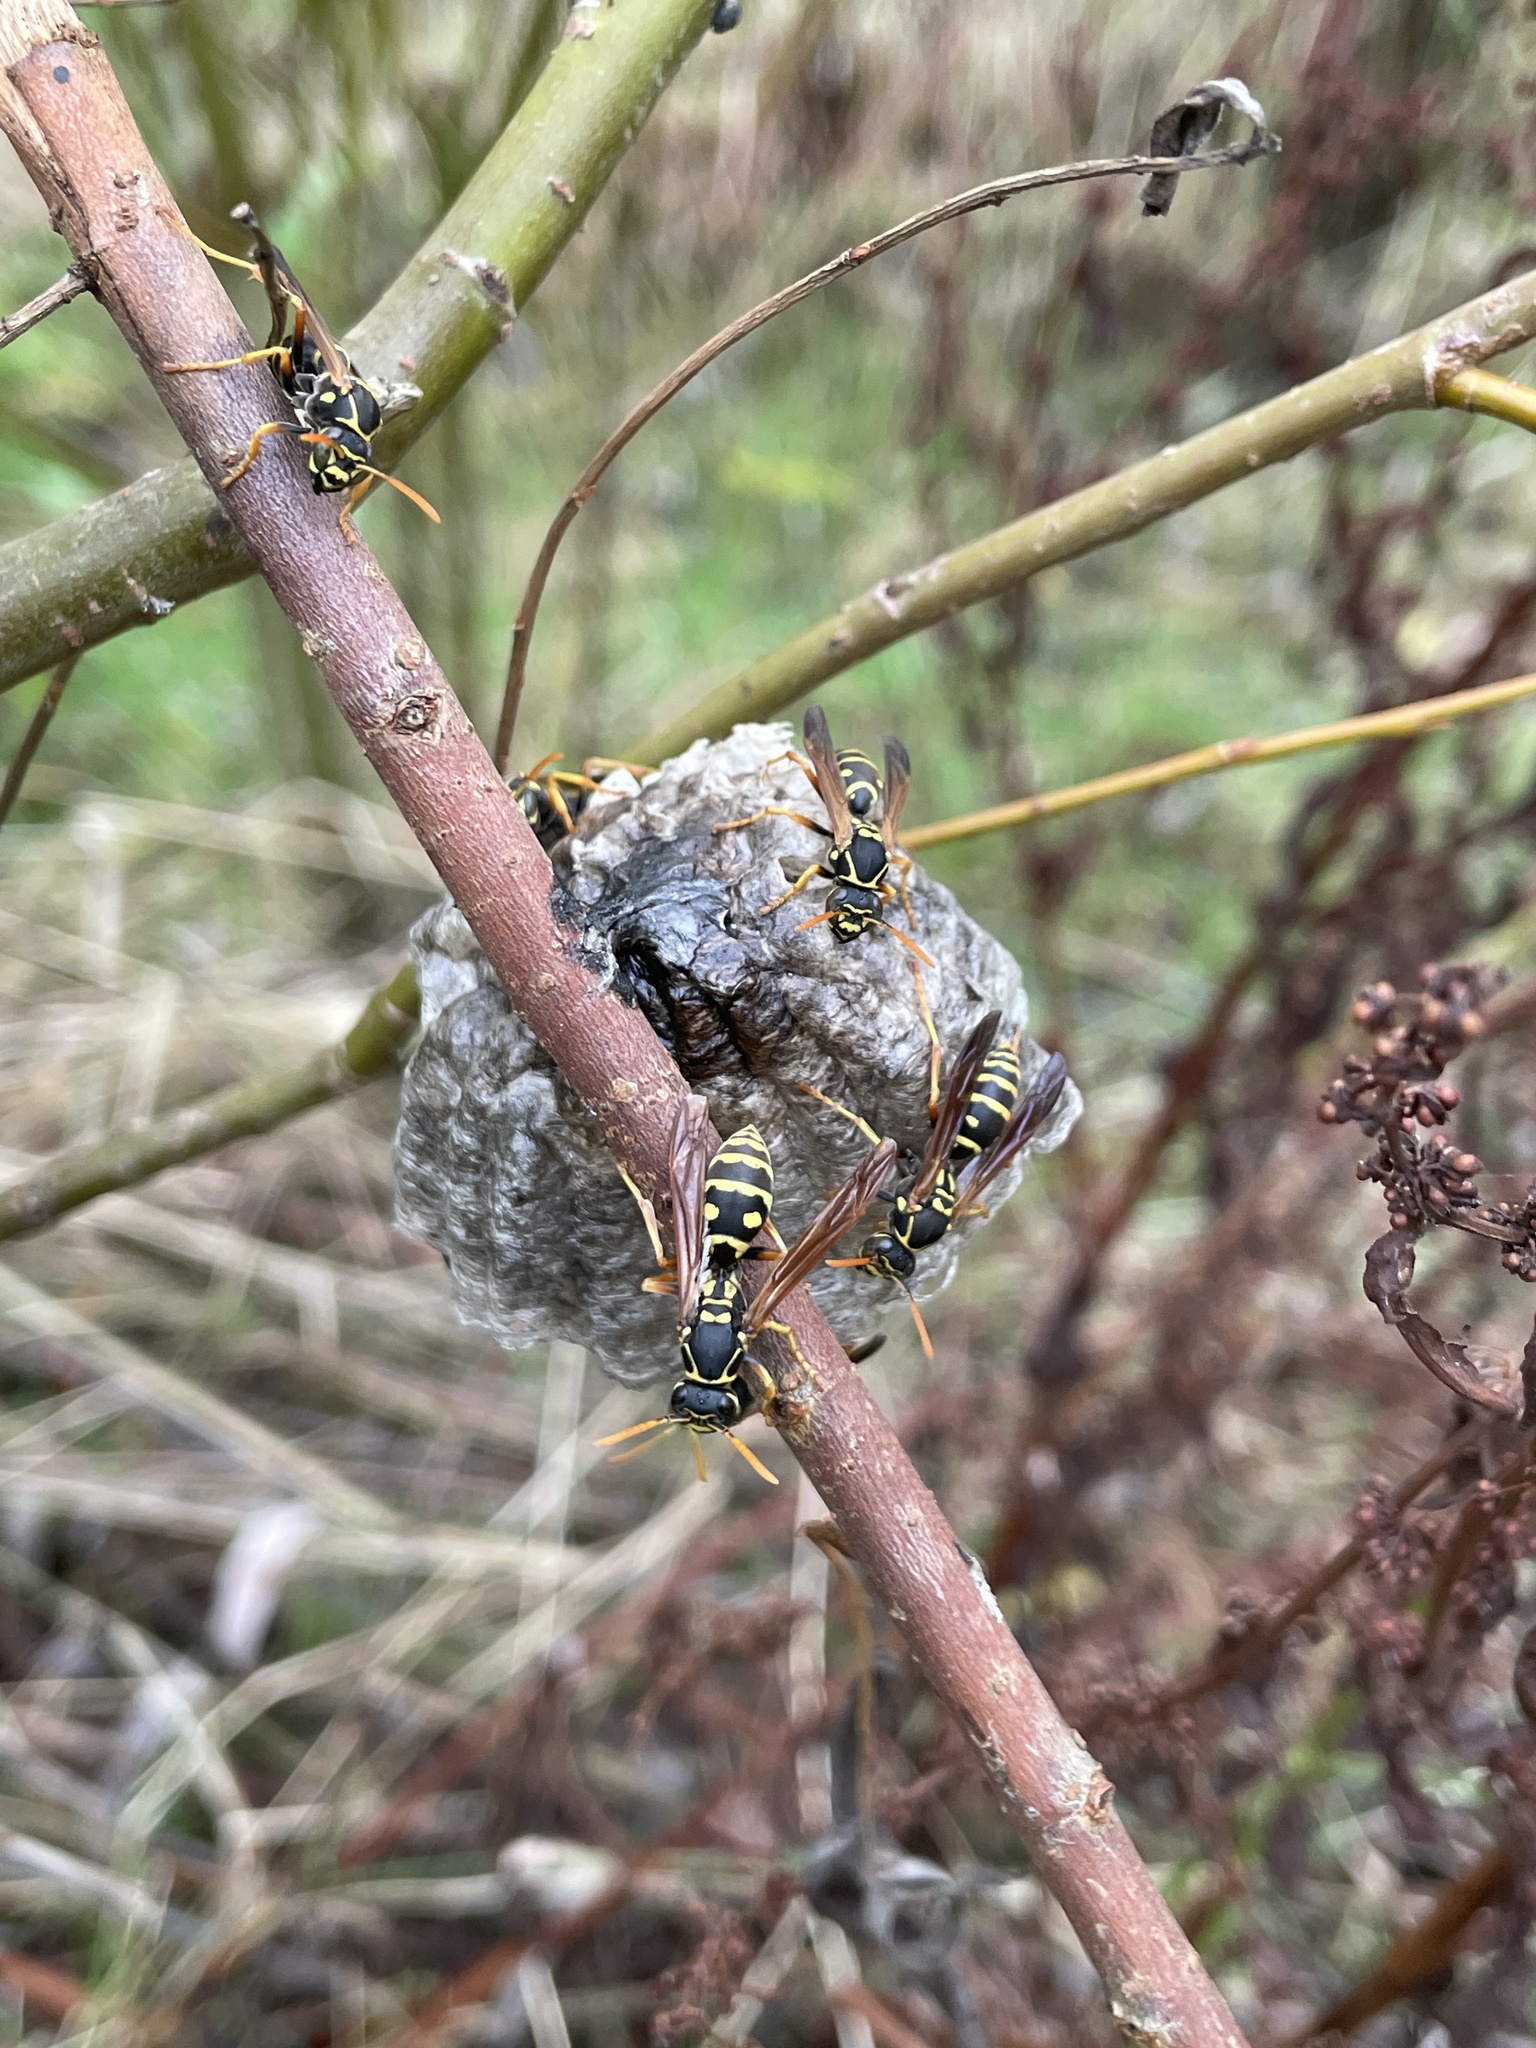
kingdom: Animalia
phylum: Arthropoda
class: Insecta
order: Hymenoptera
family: Eumenidae
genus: Polistes
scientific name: Polistes chinensis
